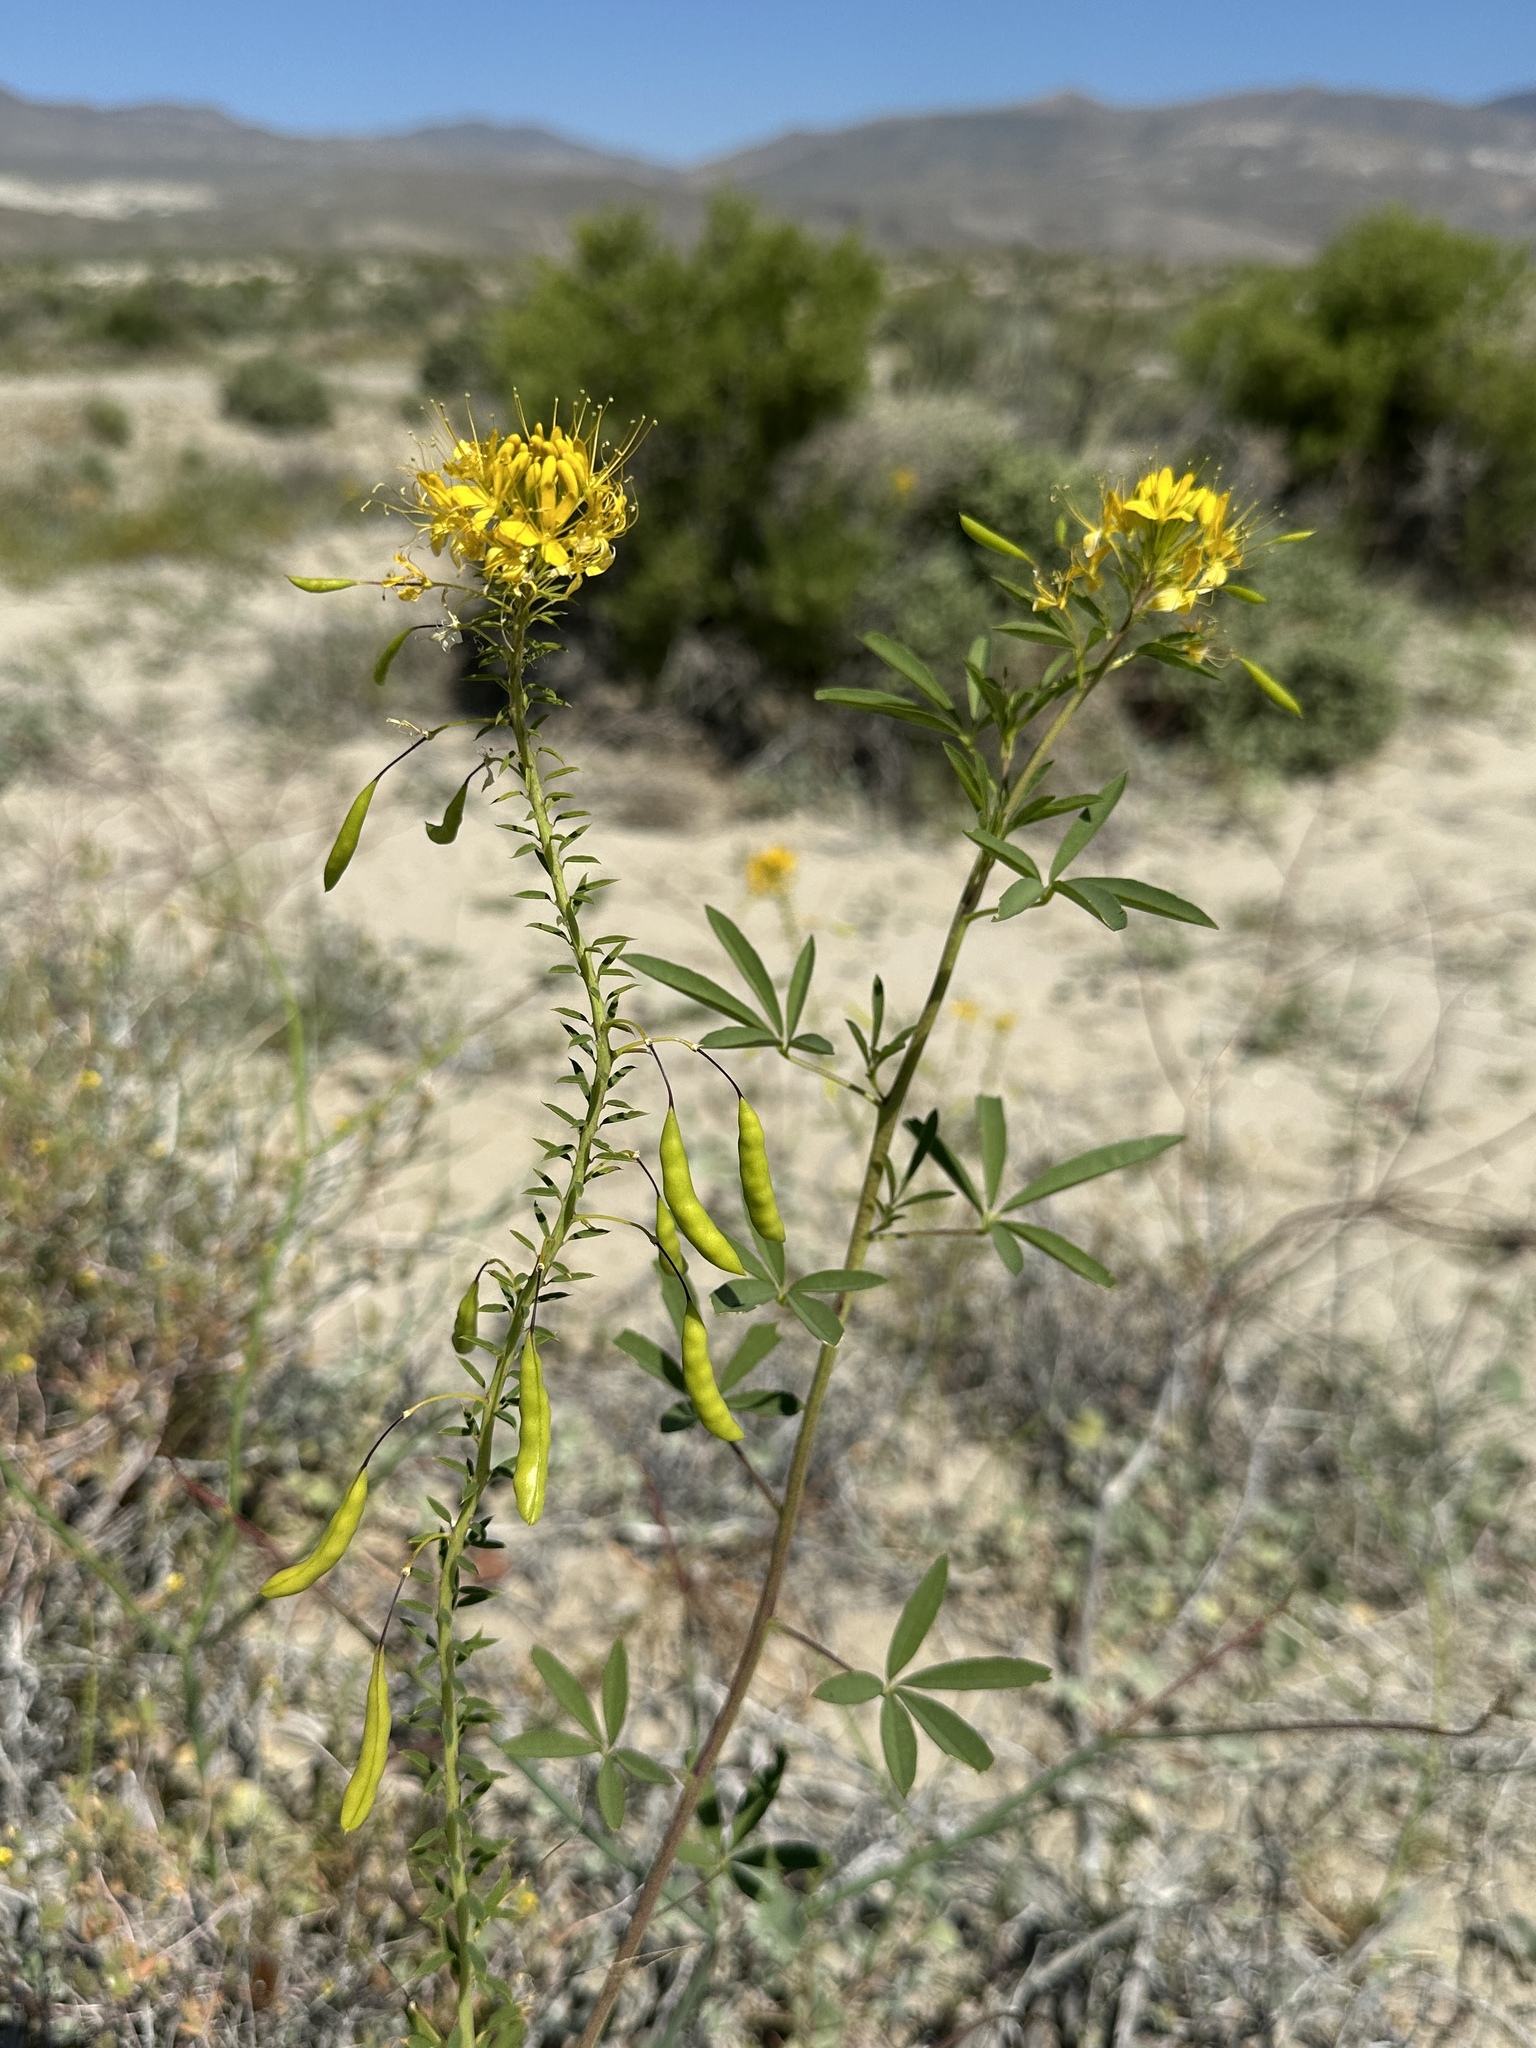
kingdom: Plantae
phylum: Tracheophyta
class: Magnoliopsida
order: Brassicales
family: Cleomaceae
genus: Cleomella
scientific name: Cleomella lutea
